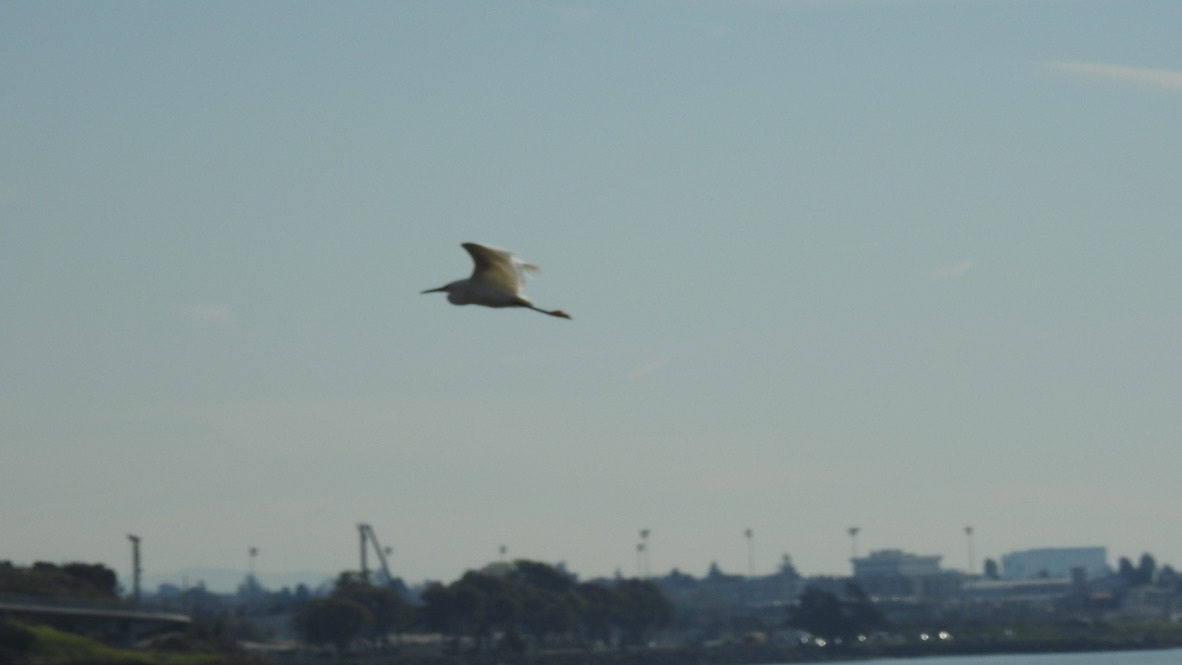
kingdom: Animalia
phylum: Chordata
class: Aves
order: Pelecaniformes
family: Ardeidae
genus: Egretta
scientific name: Egretta thula
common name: Snowy egret
